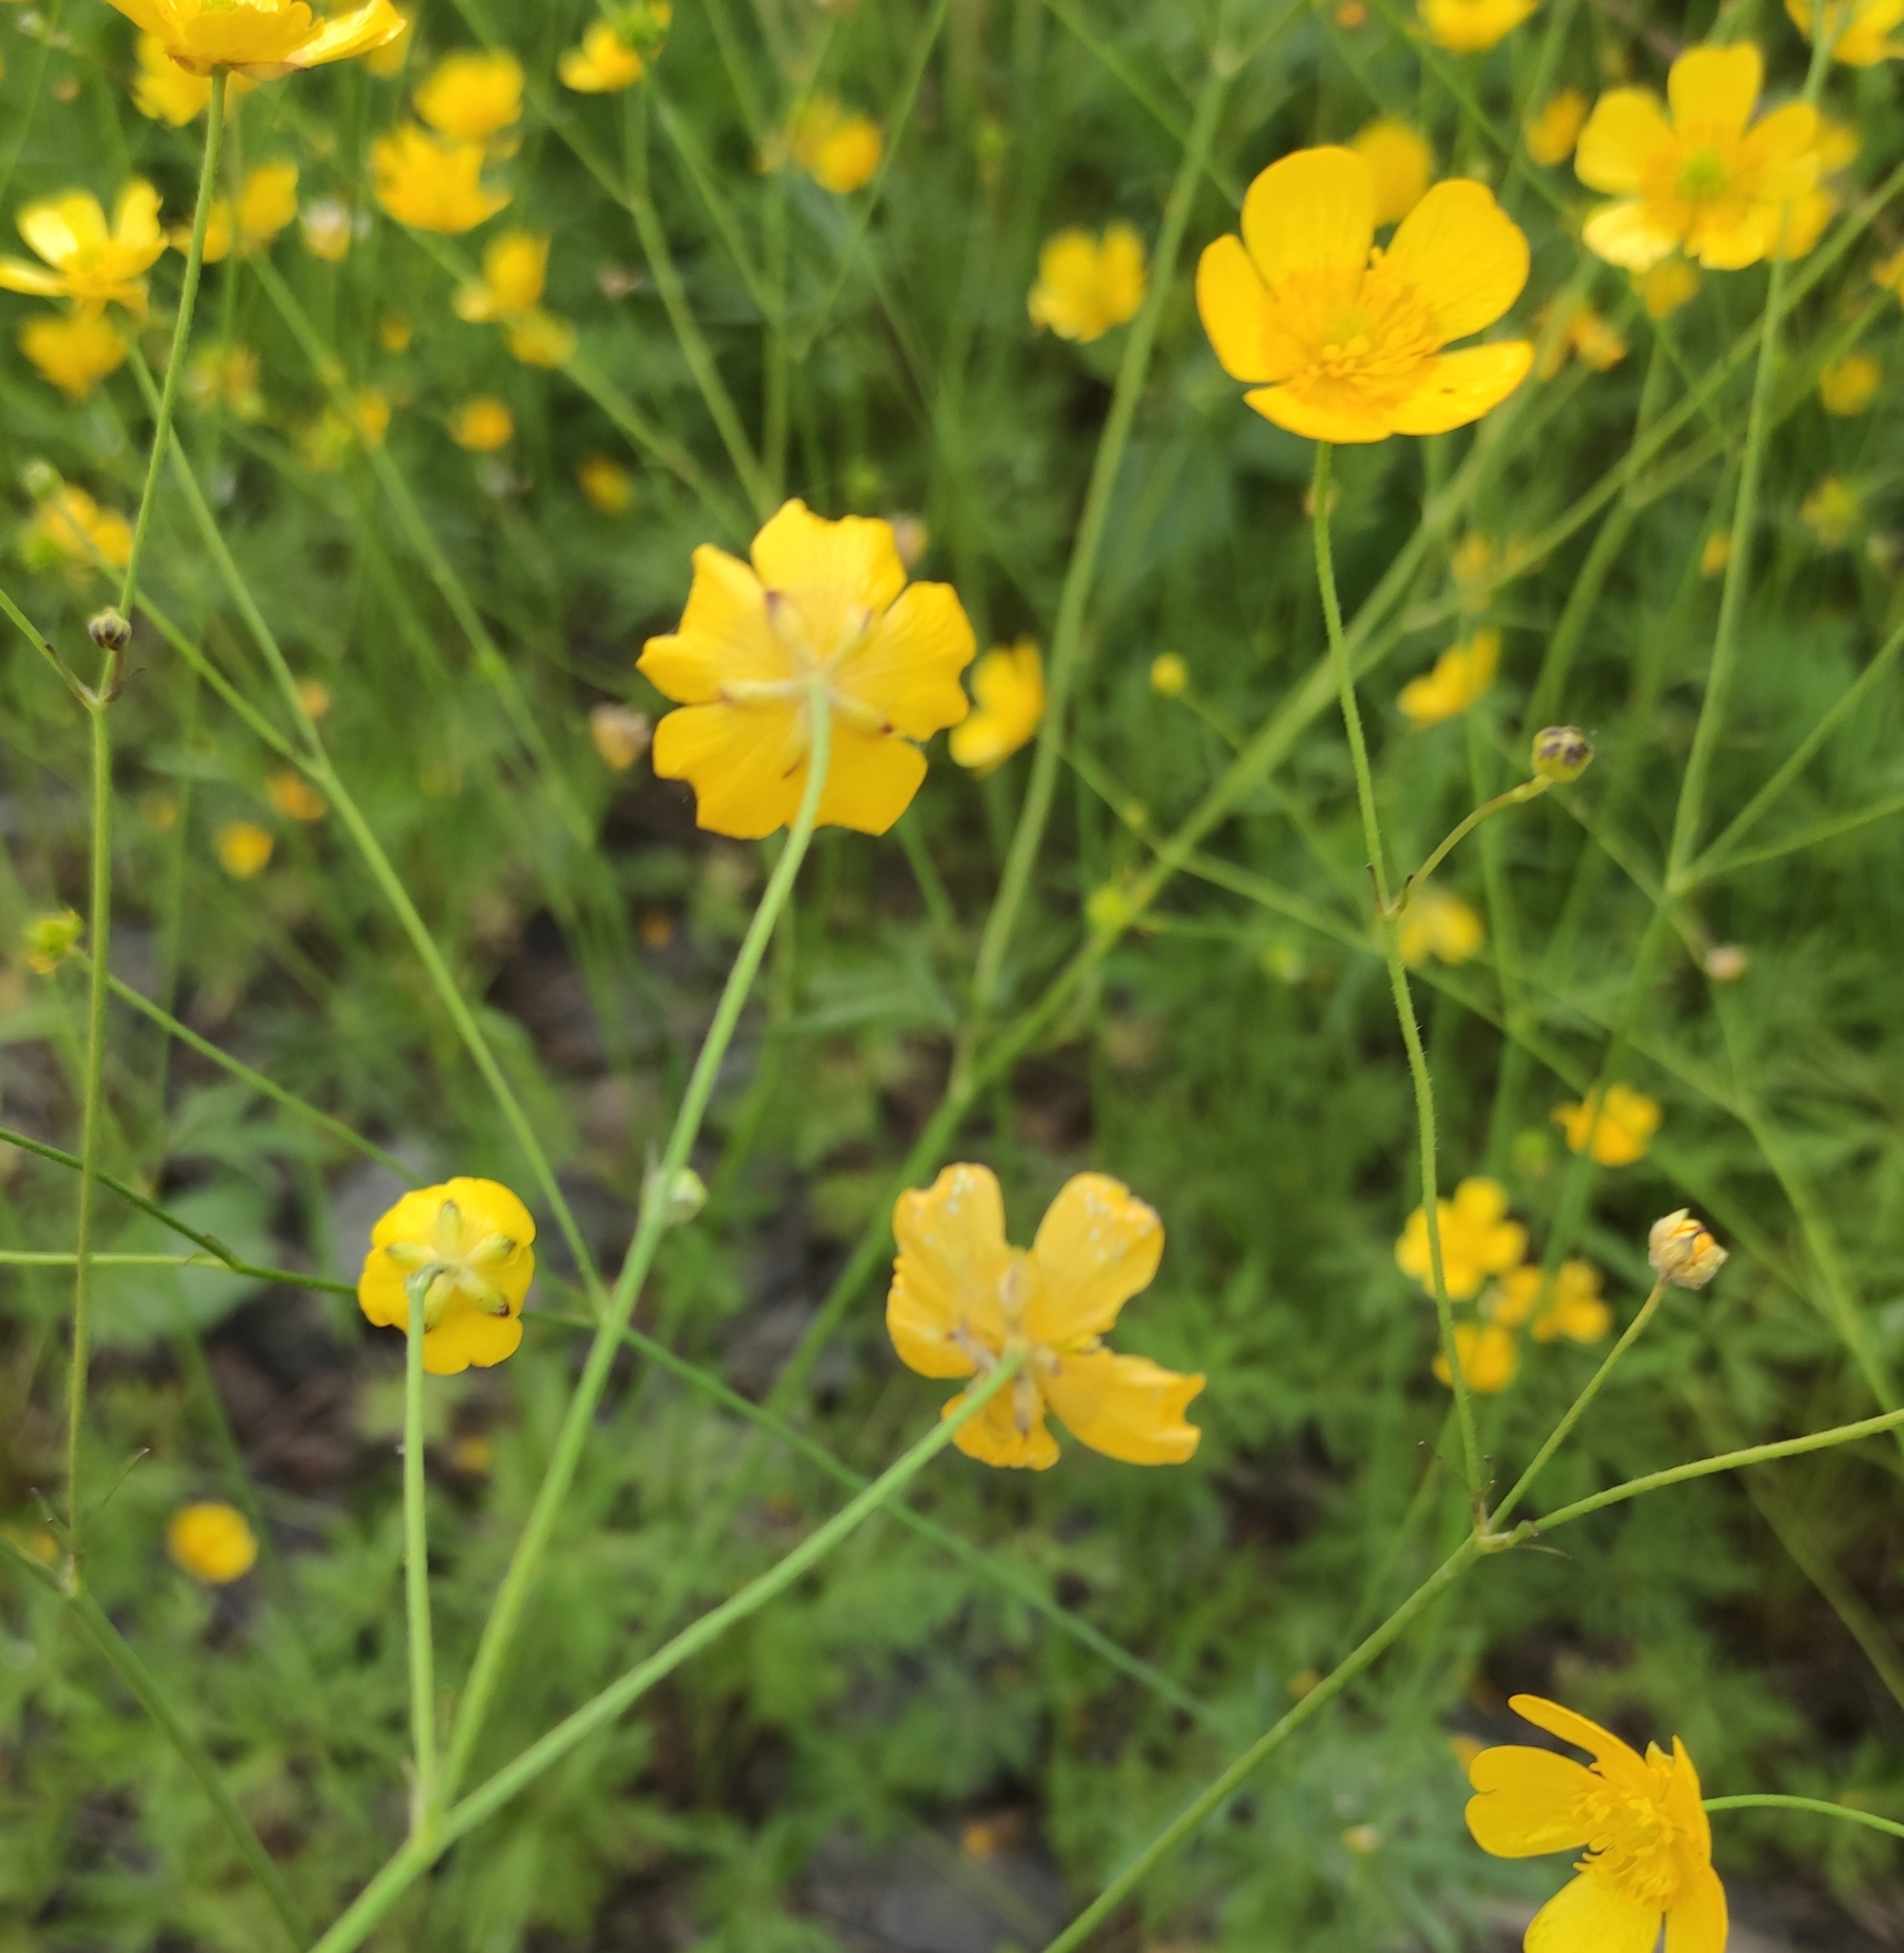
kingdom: Plantae
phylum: Tracheophyta
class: Magnoliopsida
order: Ranunculales
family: Ranunculaceae
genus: Ranunculus
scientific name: Ranunculus acris
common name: Meadow buttercup
